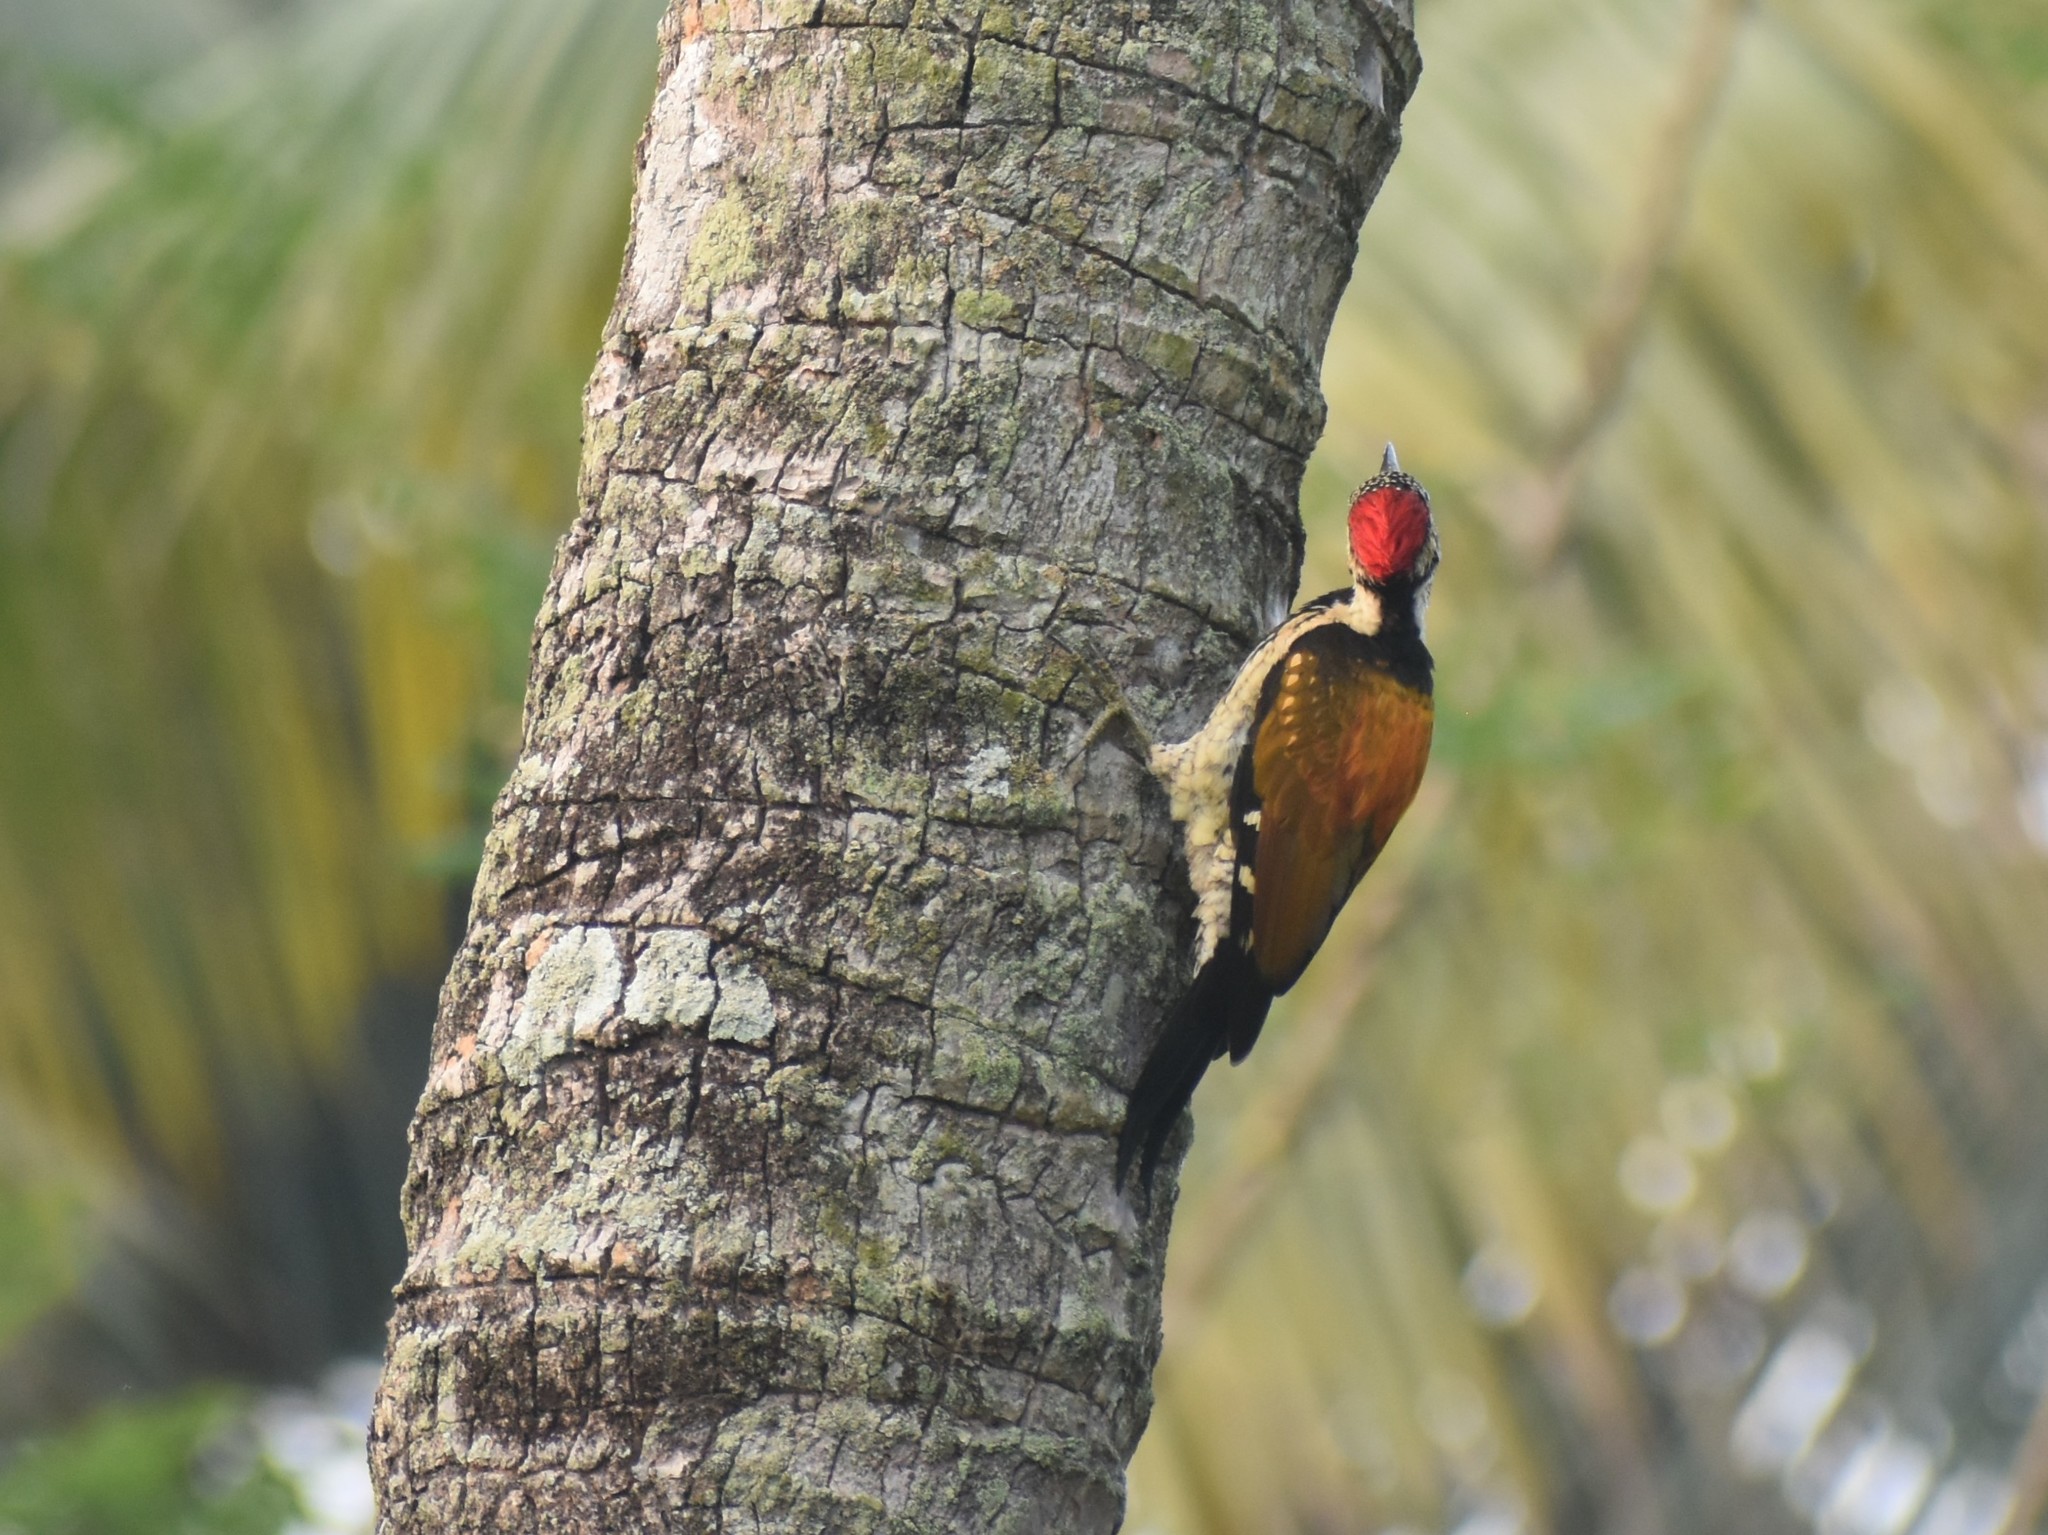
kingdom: Animalia
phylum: Chordata
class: Aves
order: Piciformes
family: Picidae
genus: Dinopium
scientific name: Dinopium benghalense
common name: Black-rumped flameback
